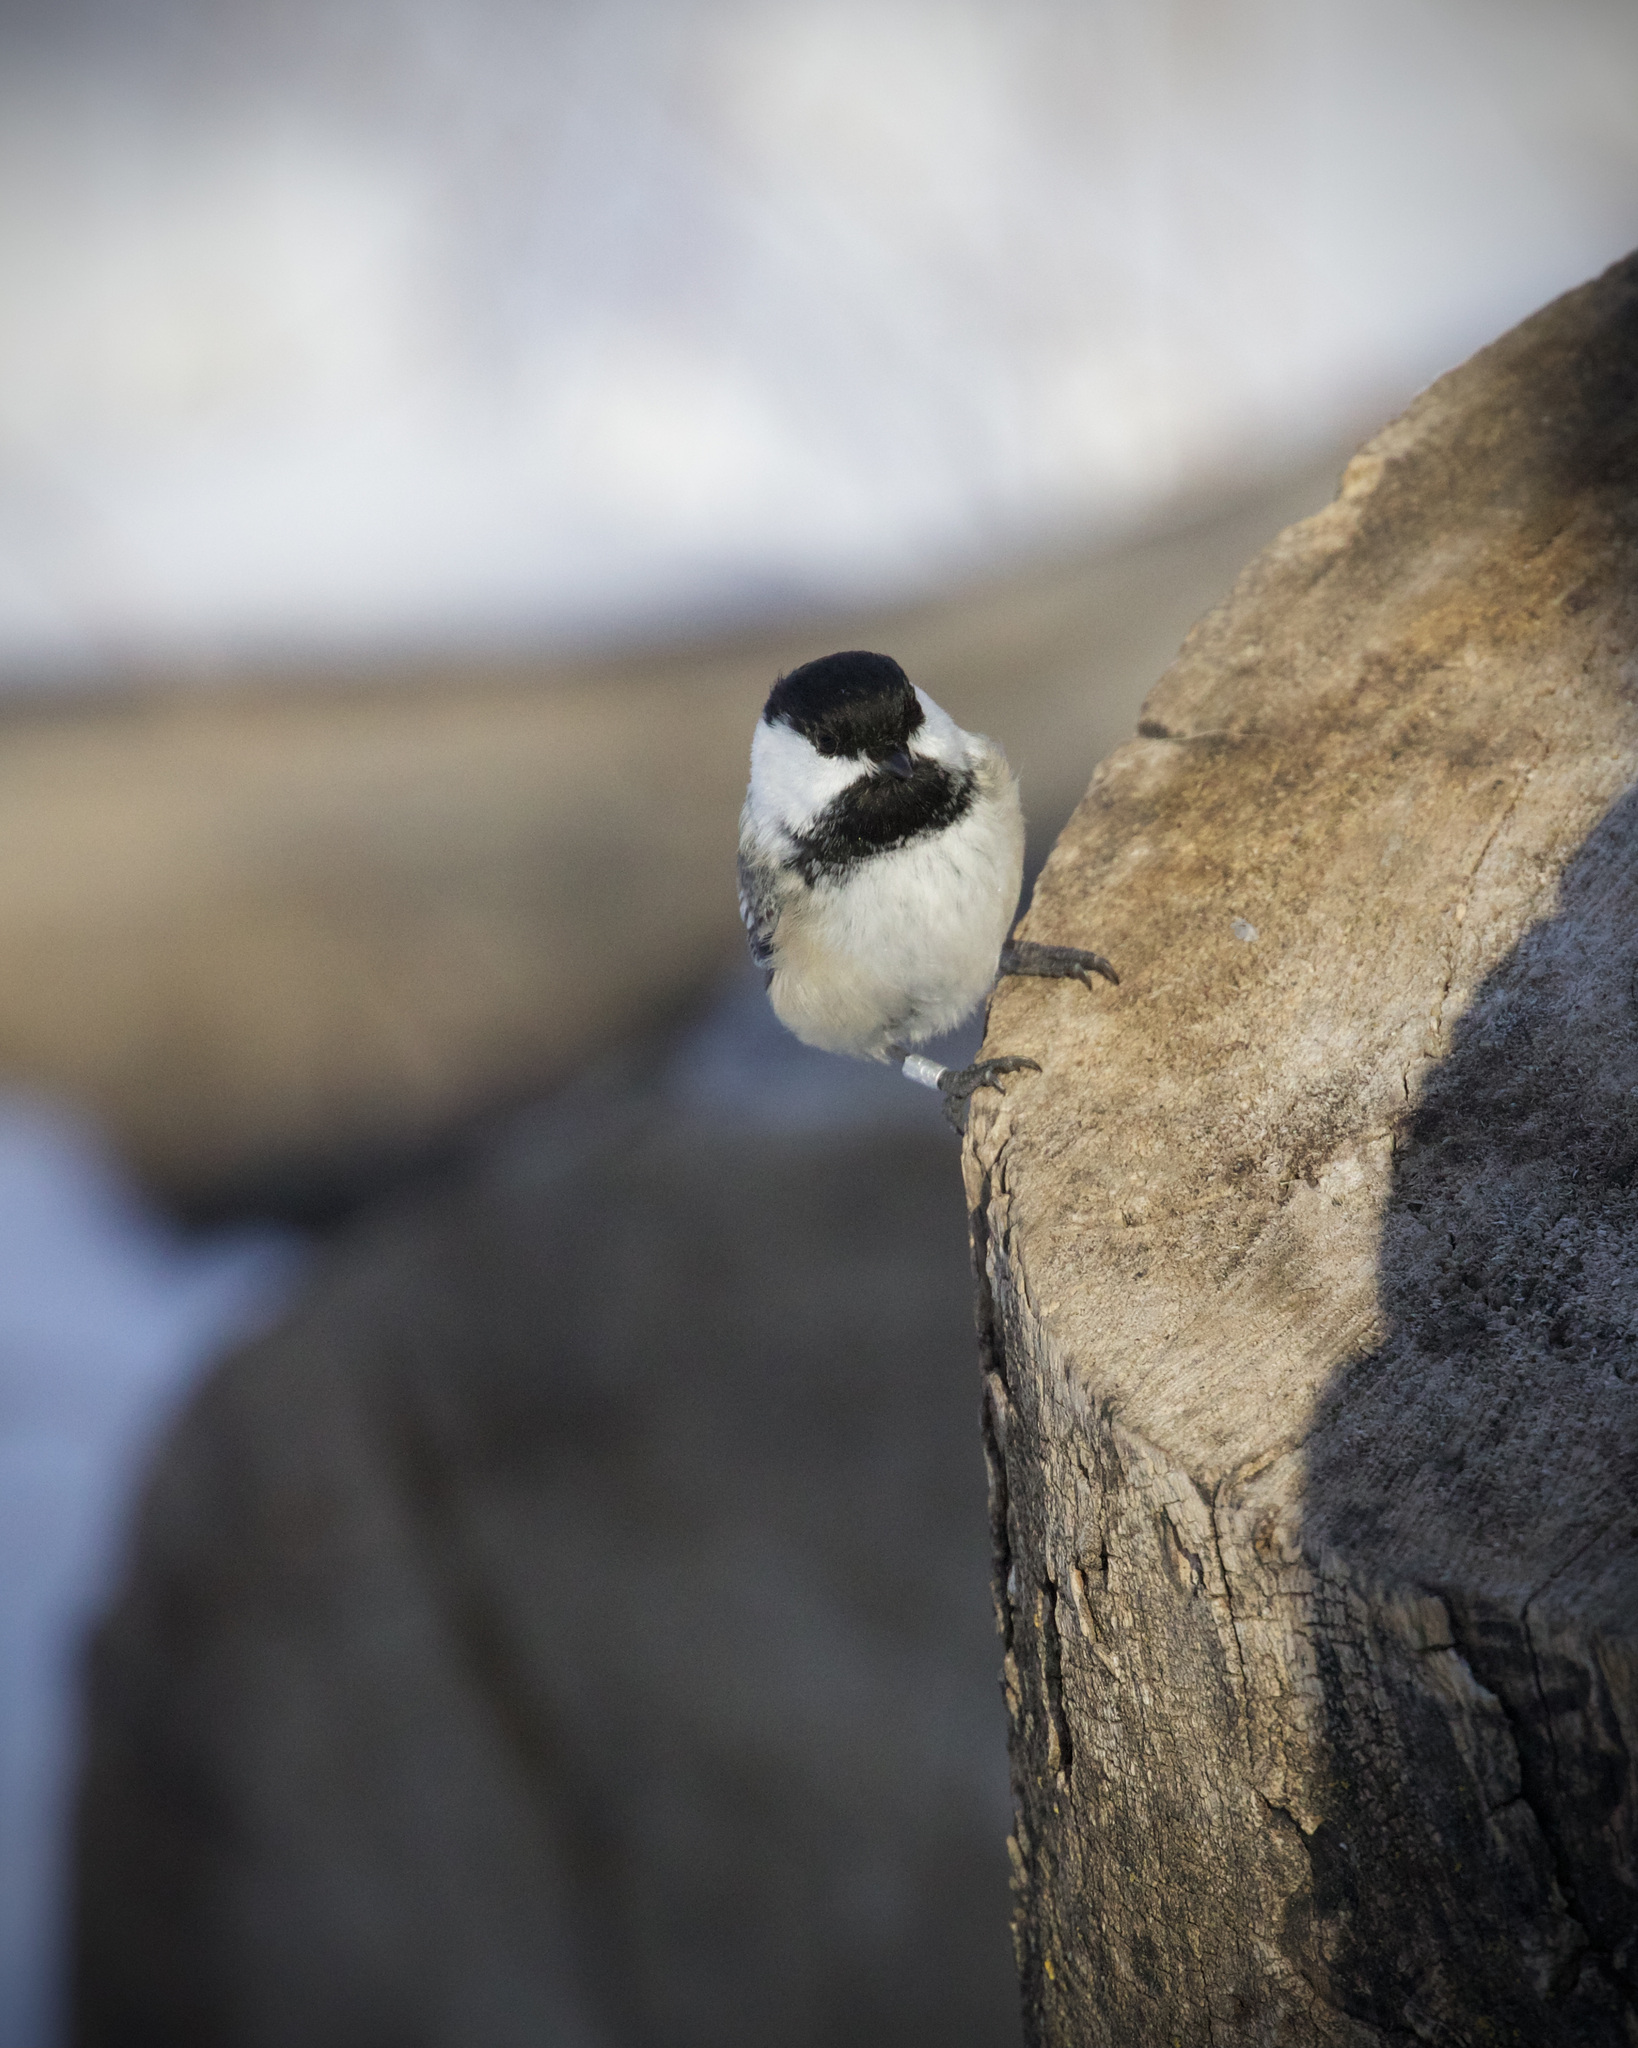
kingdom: Animalia
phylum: Chordata
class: Aves
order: Passeriformes
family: Paridae
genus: Poecile
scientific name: Poecile atricapillus
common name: Black-capped chickadee
